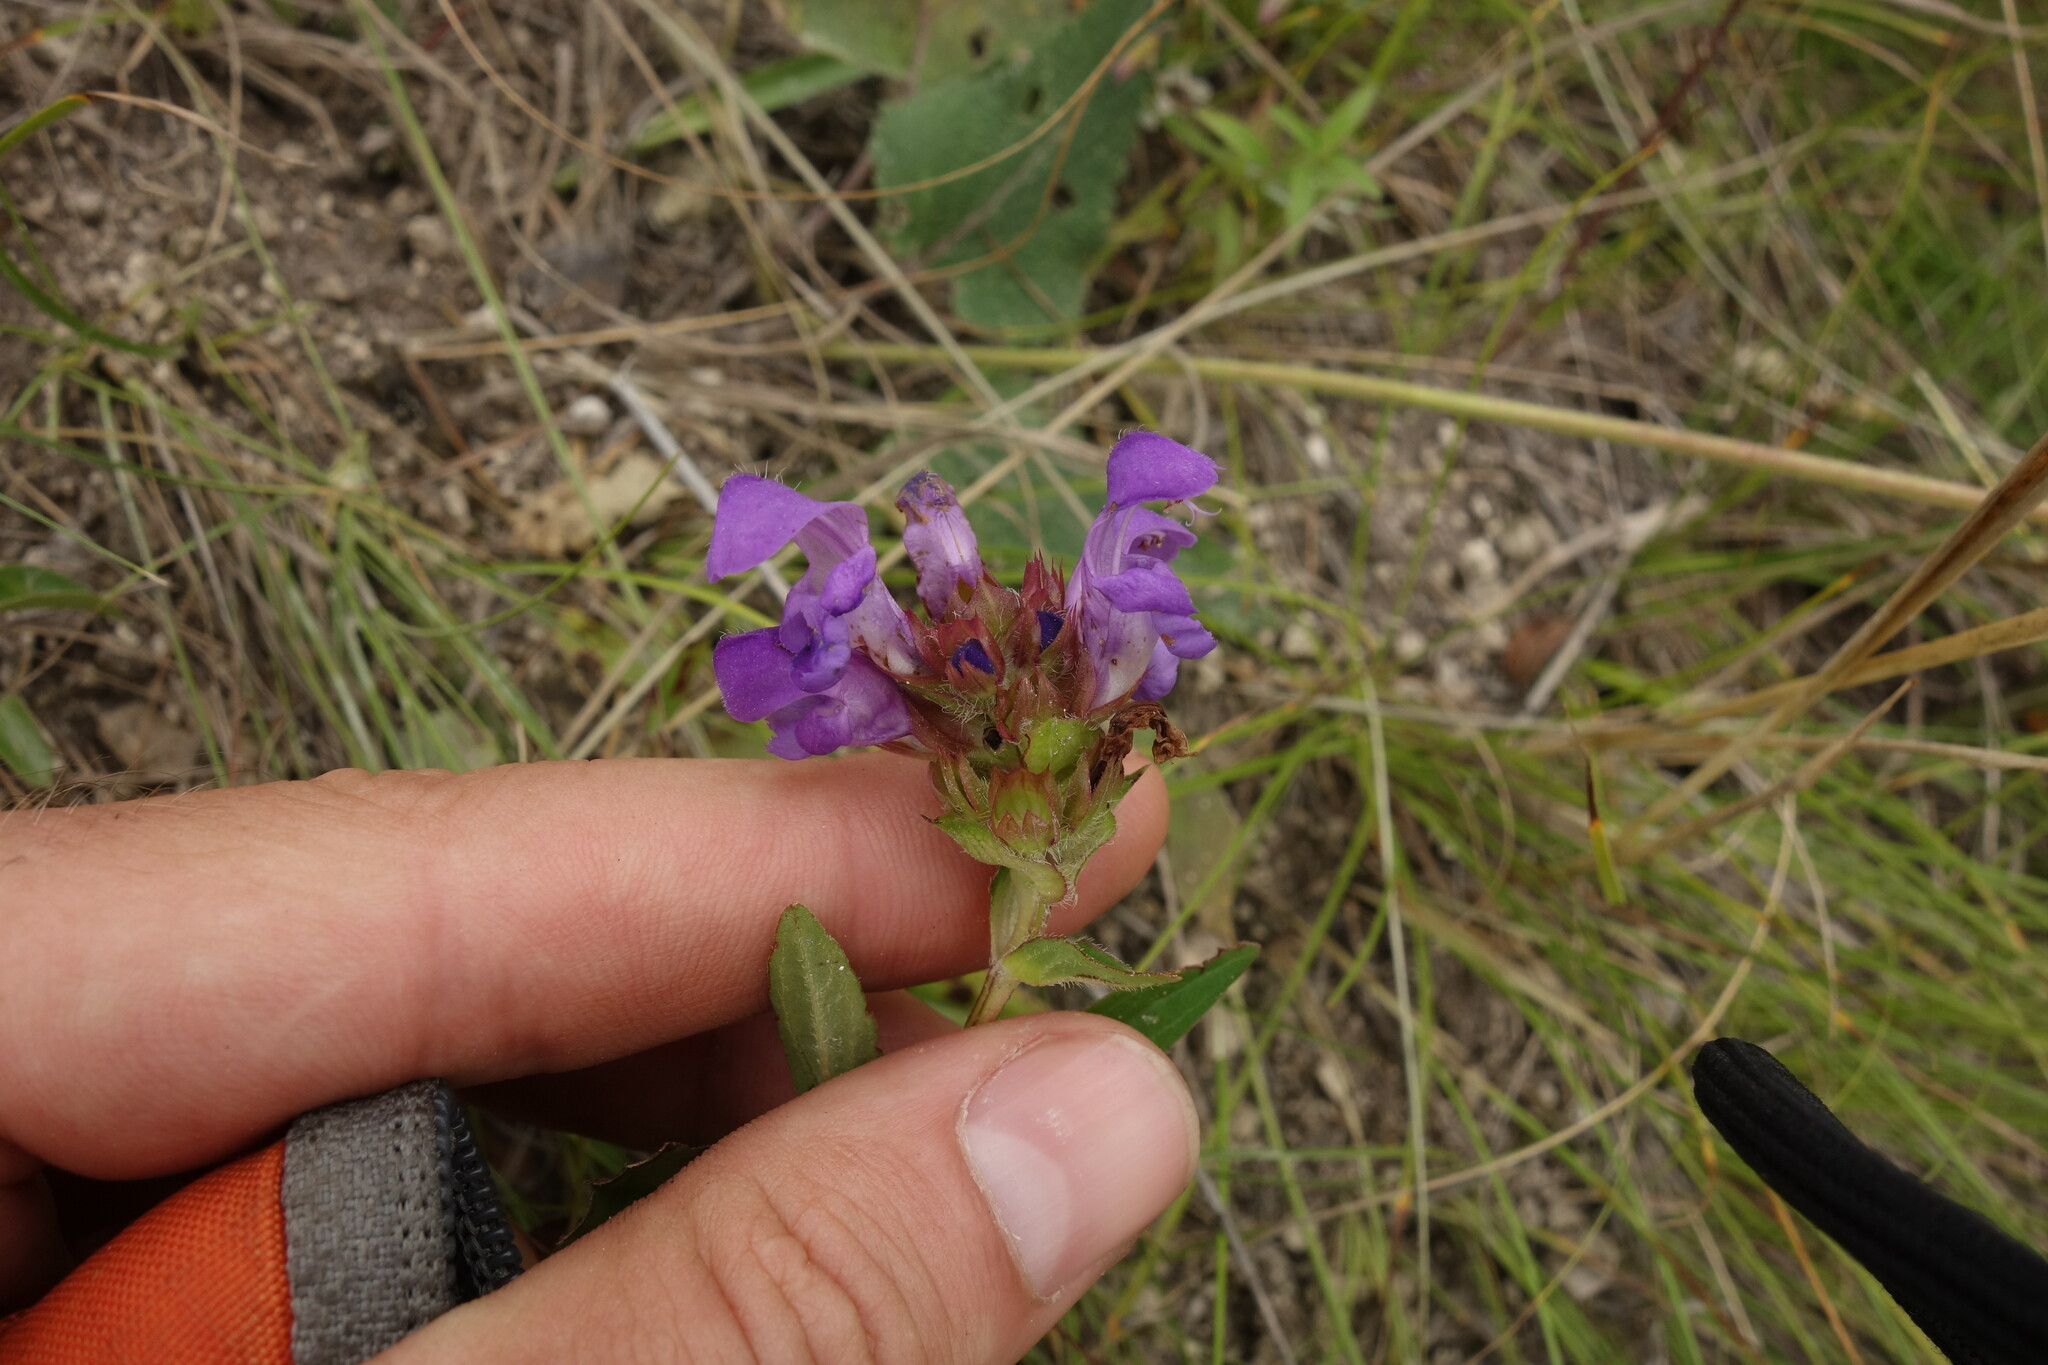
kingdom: Plantae
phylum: Tracheophyta
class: Magnoliopsida
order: Lamiales
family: Lamiaceae
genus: Prunella
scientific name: Prunella grandiflora
